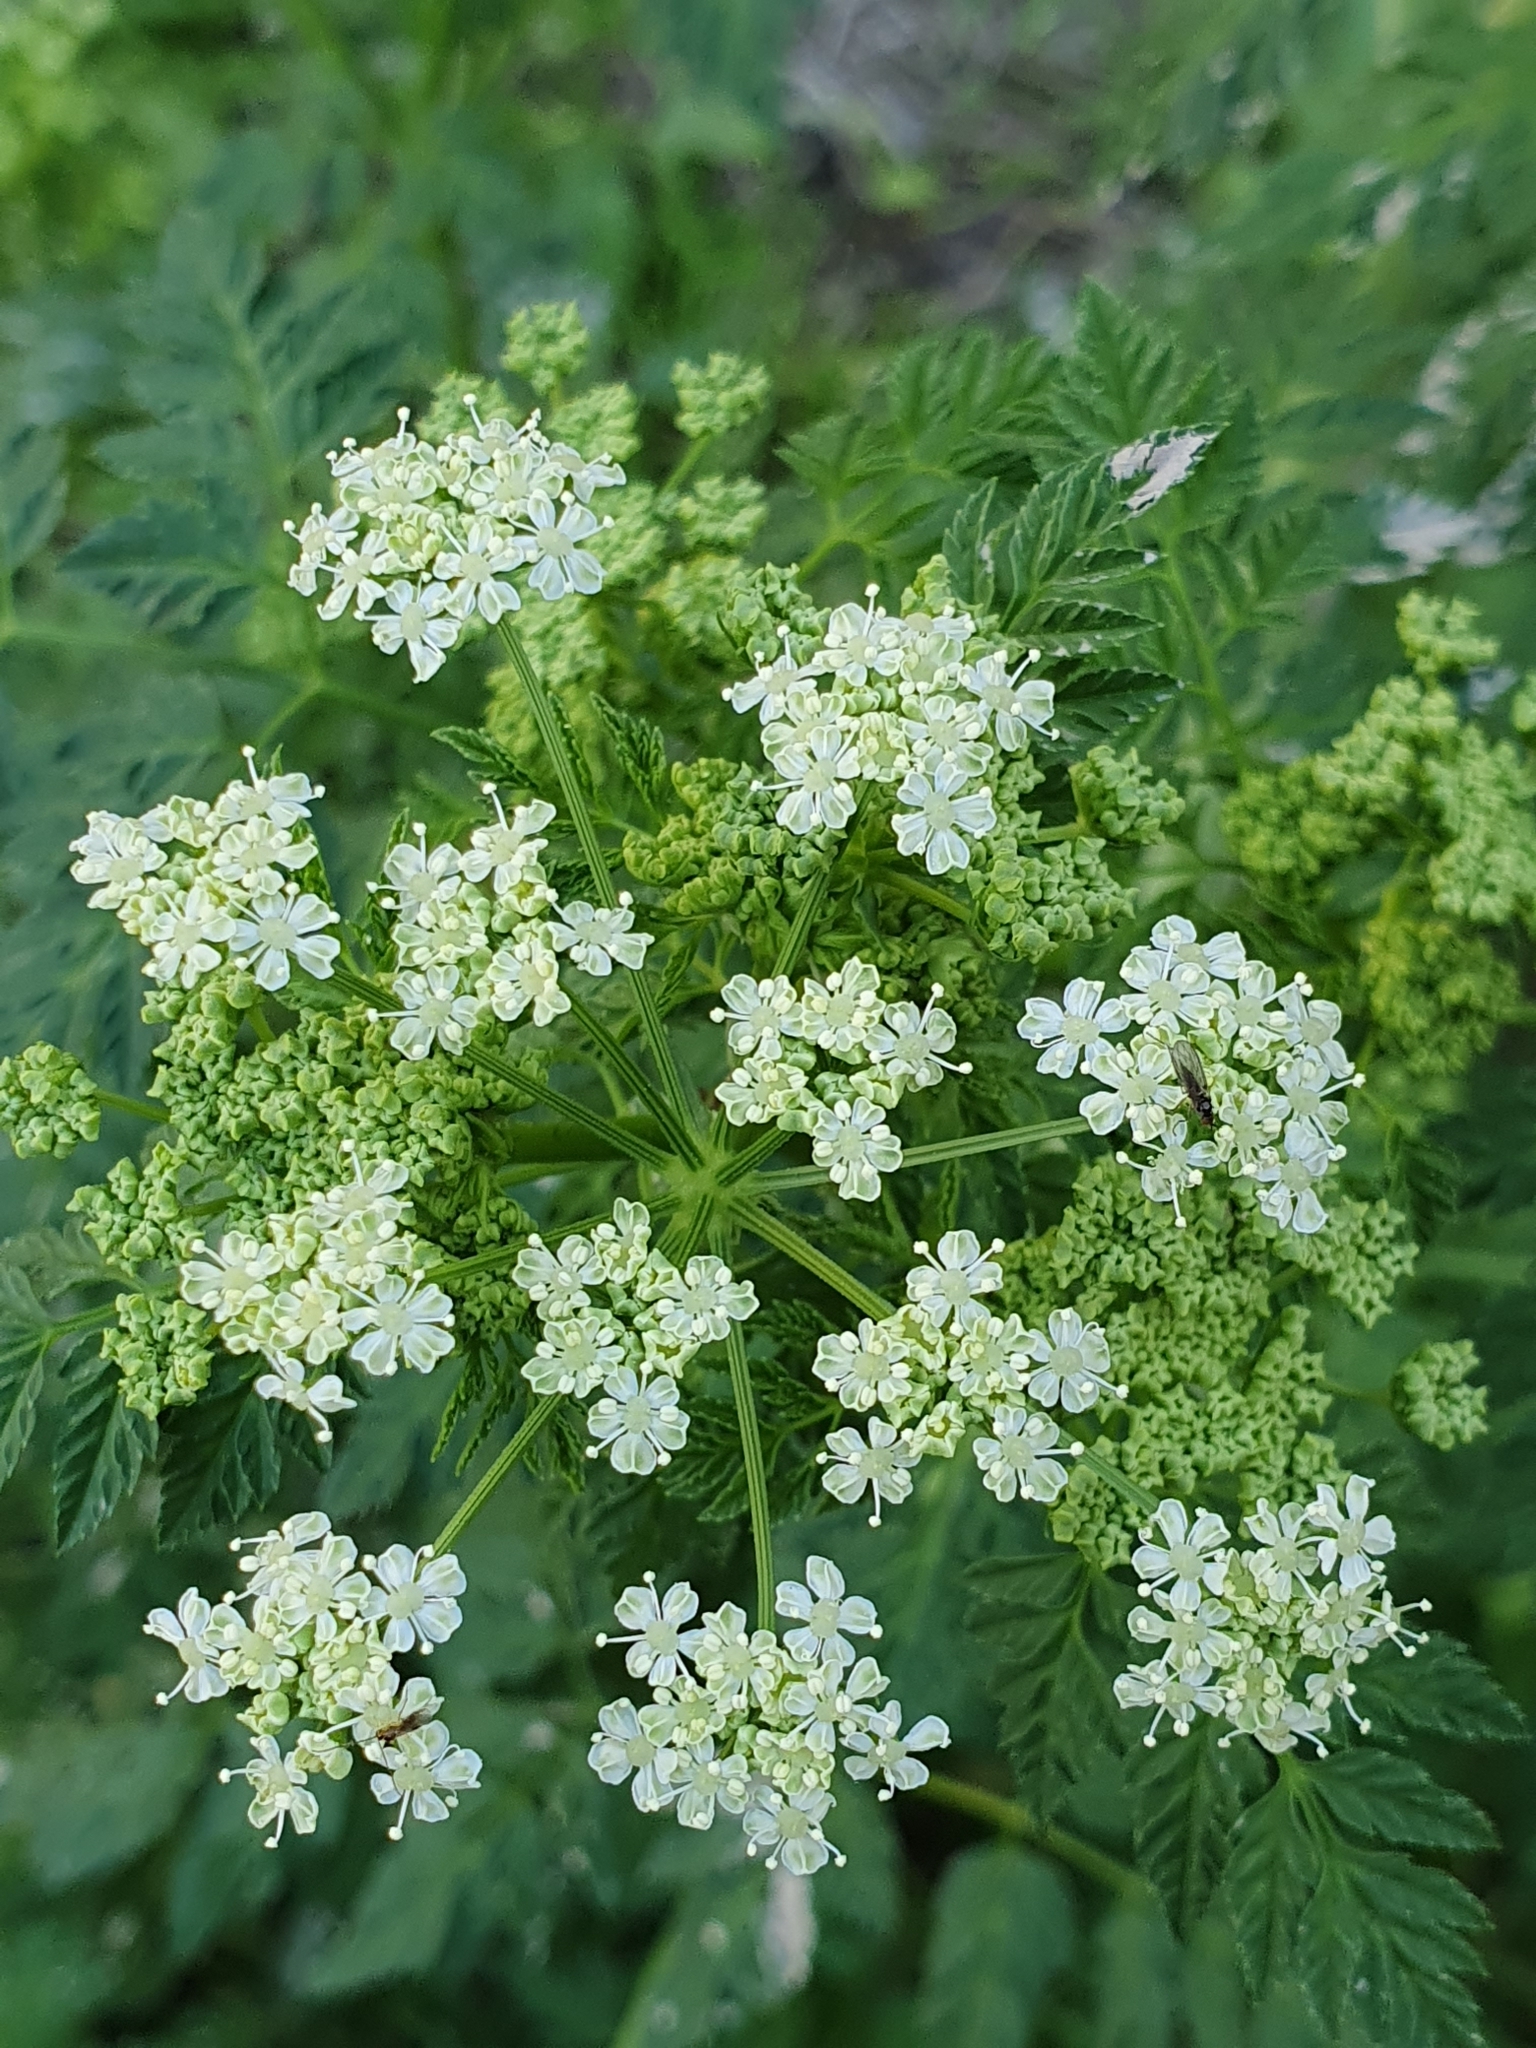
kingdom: Plantae
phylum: Tracheophyta
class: Magnoliopsida
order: Apiales
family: Apiaceae
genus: Conium
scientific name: Conium maculatum
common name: Hemlock
